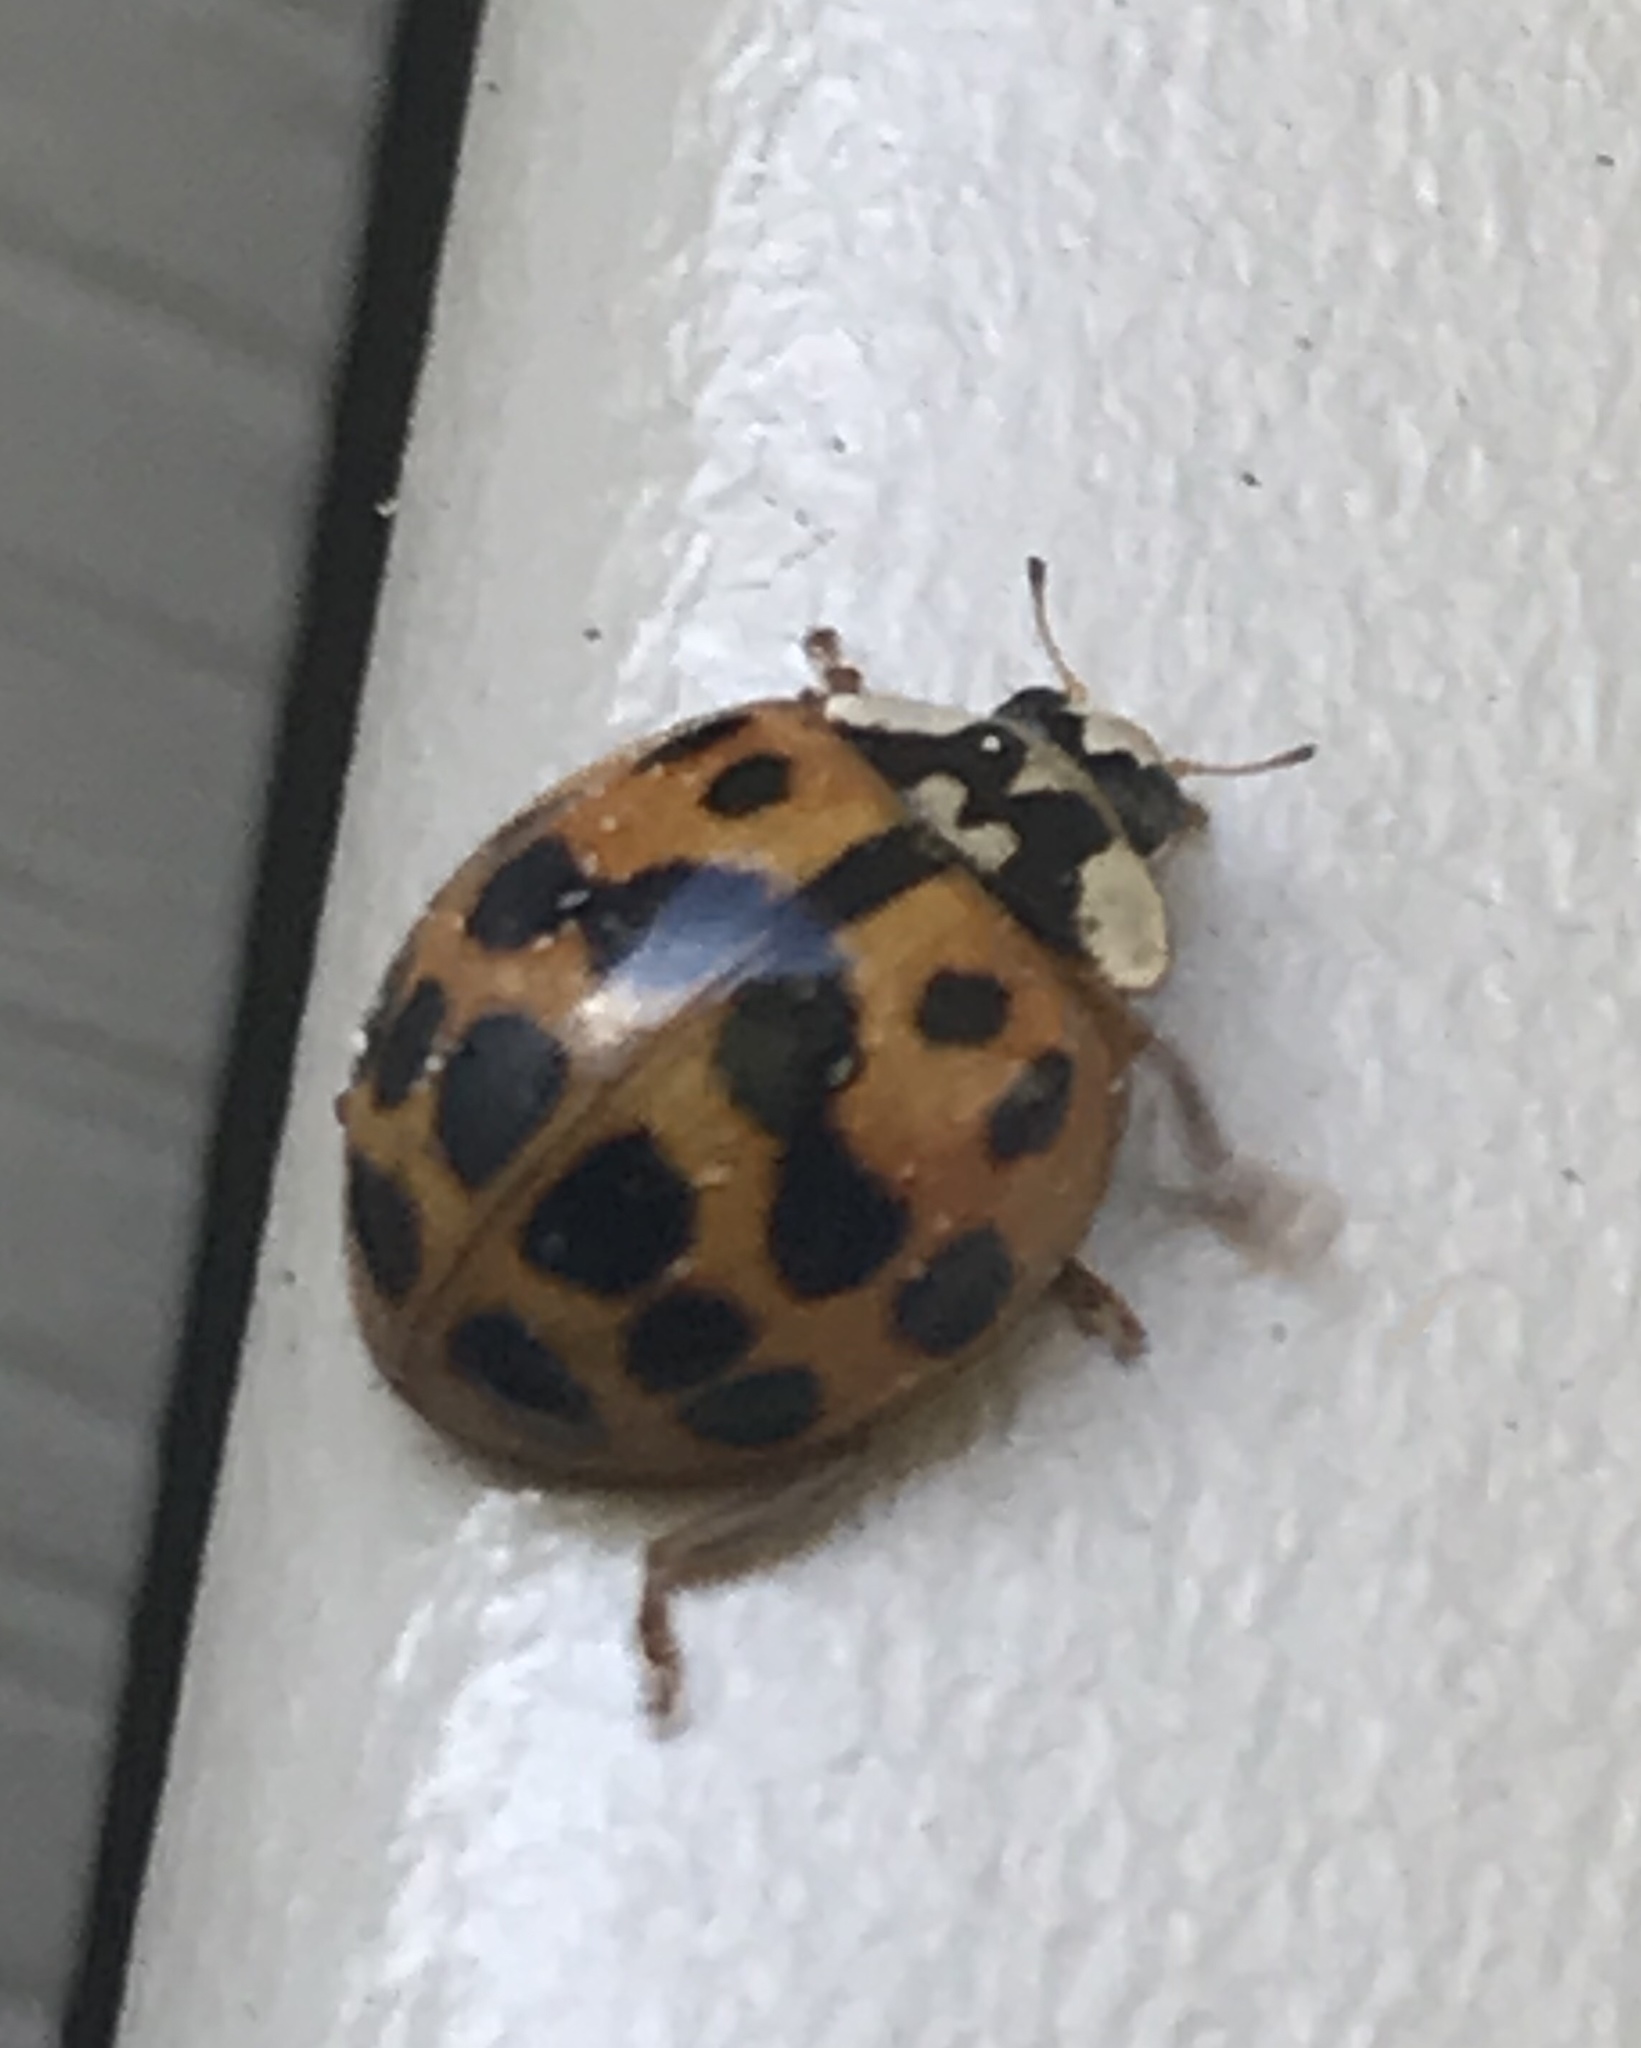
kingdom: Animalia
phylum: Arthropoda
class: Insecta
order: Coleoptera
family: Coccinellidae
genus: Harmonia
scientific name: Harmonia axyridis
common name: Harlequin ladybird
